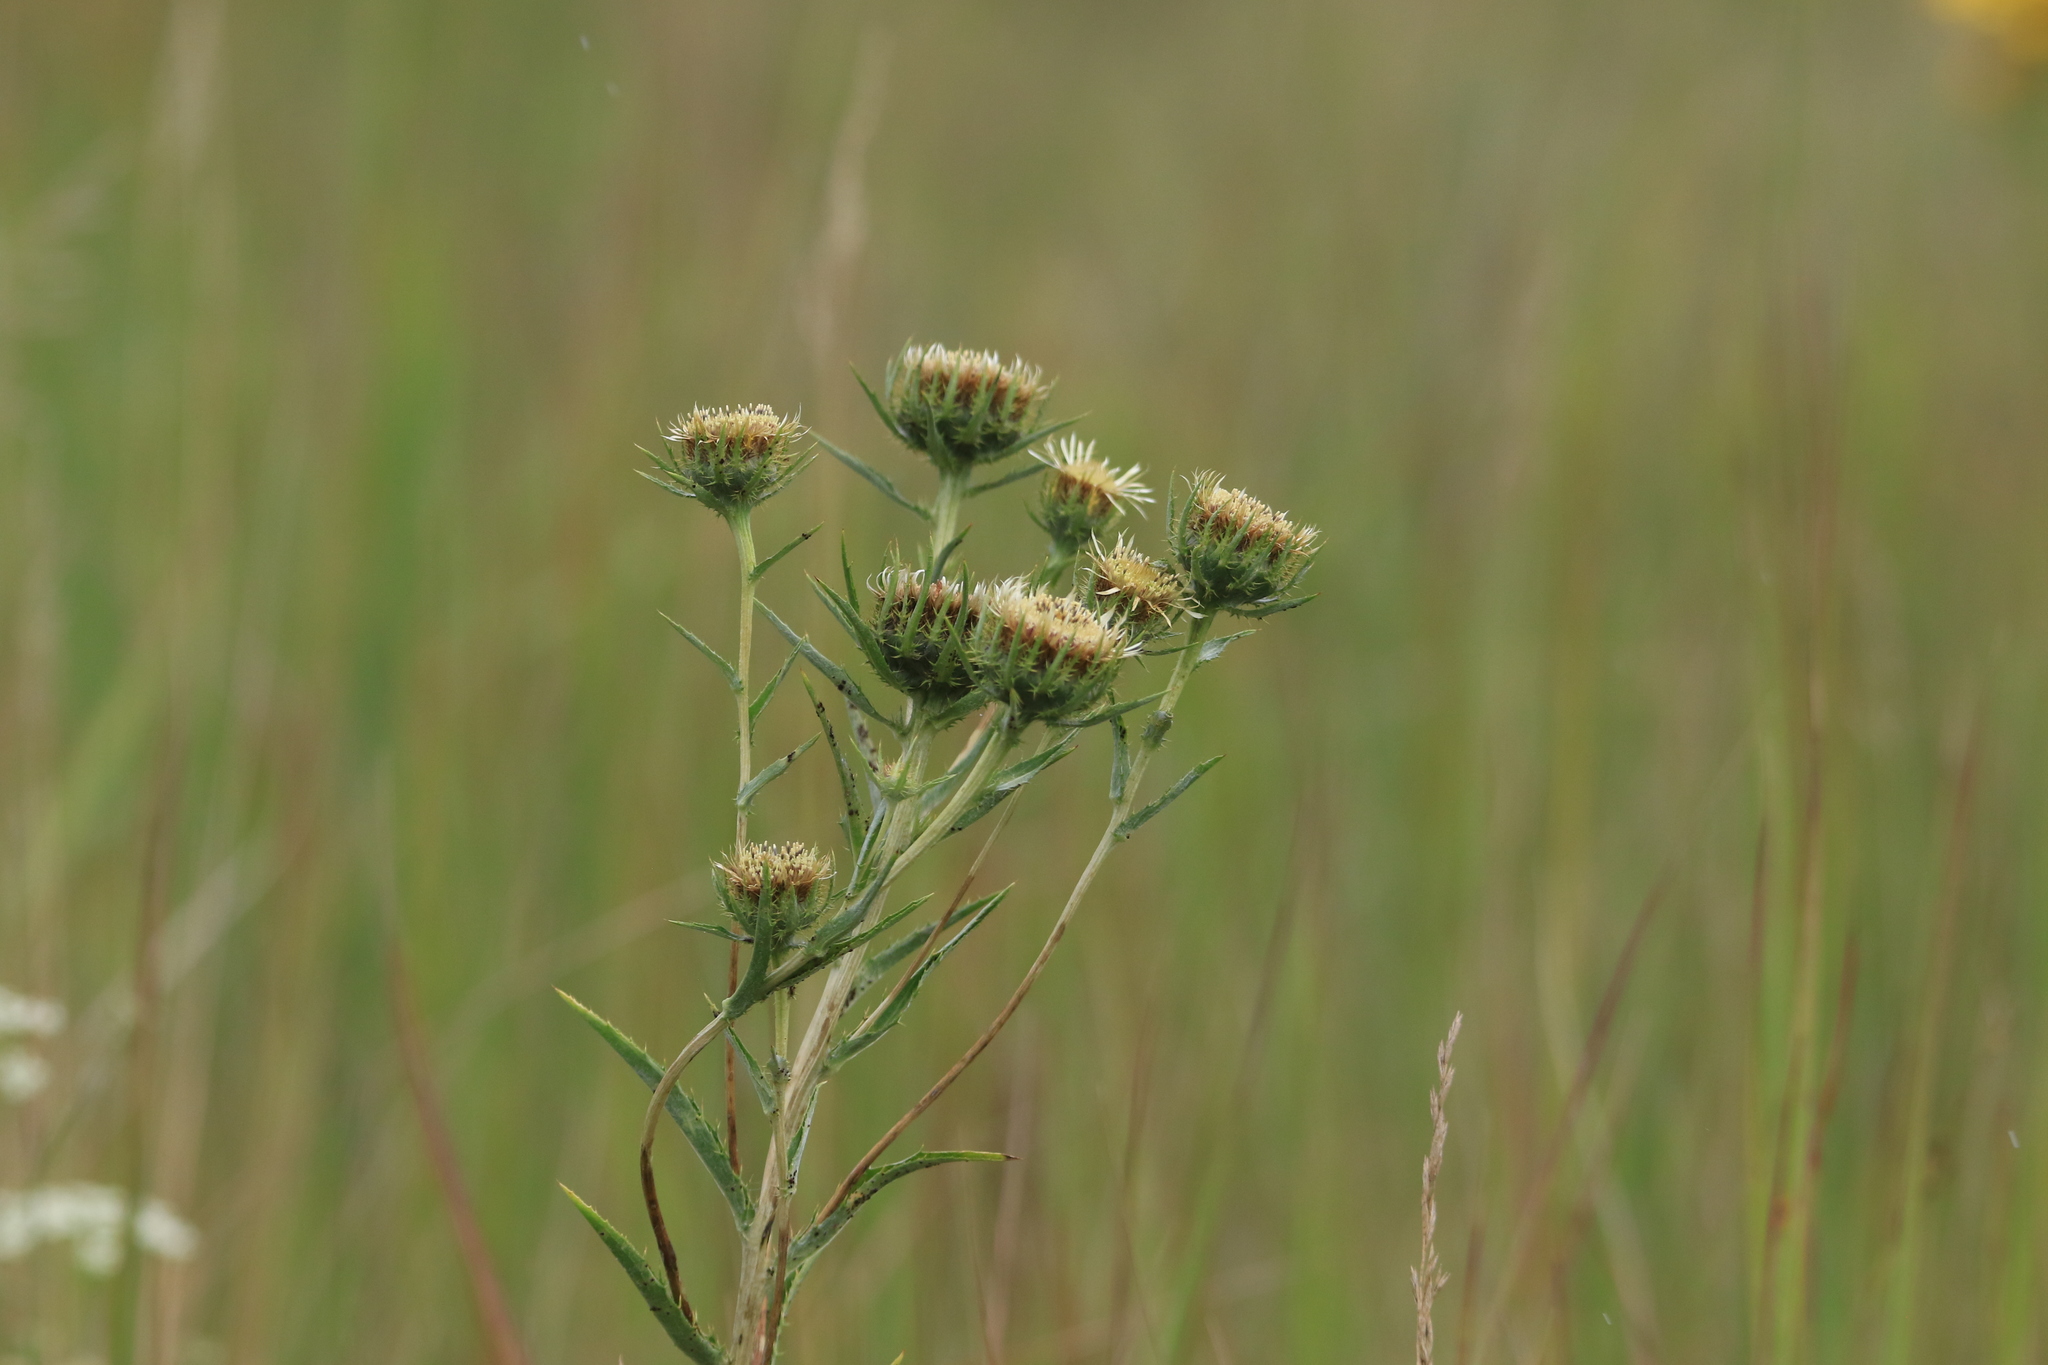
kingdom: Plantae
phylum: Tracheophyta
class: Magnoliopsida
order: Asterales
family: Asteraceae
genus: Carlina
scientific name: Carlina biebersteinii
